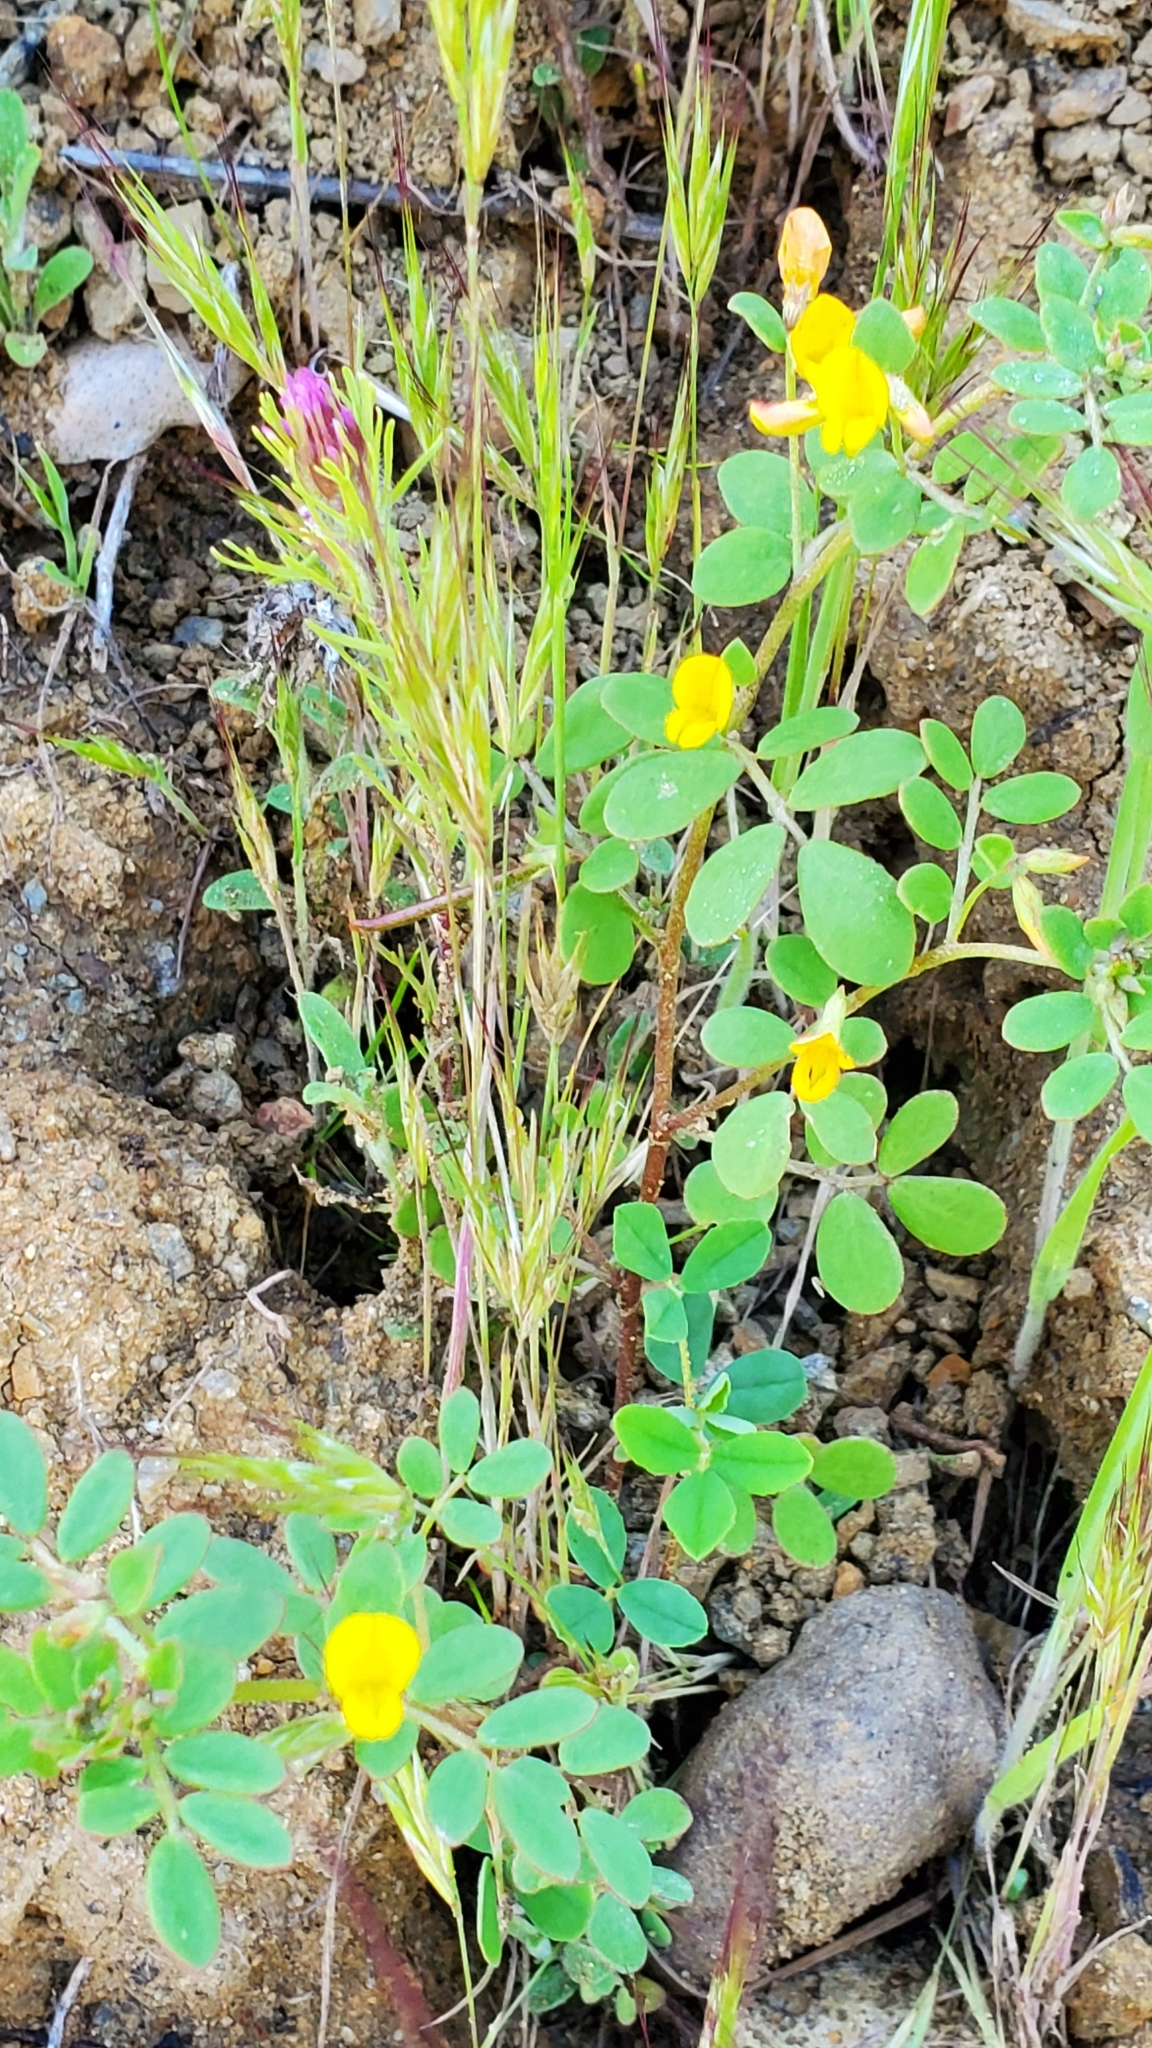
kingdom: Plantae
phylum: Tracheophyta
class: Magnoliopsida
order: Fabales
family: Fabaceae
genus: Acmispon
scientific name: Acmispon maritimus
